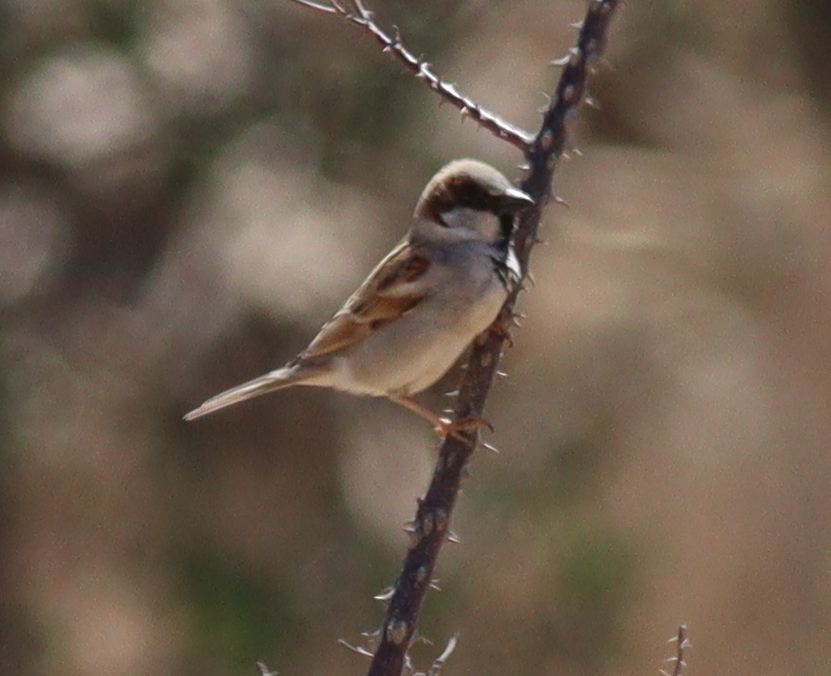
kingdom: Animalia
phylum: Chordata
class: Aves
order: Passeriformes
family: Passeridae
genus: Passer
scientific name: Passer domesticus
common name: House sparrow
